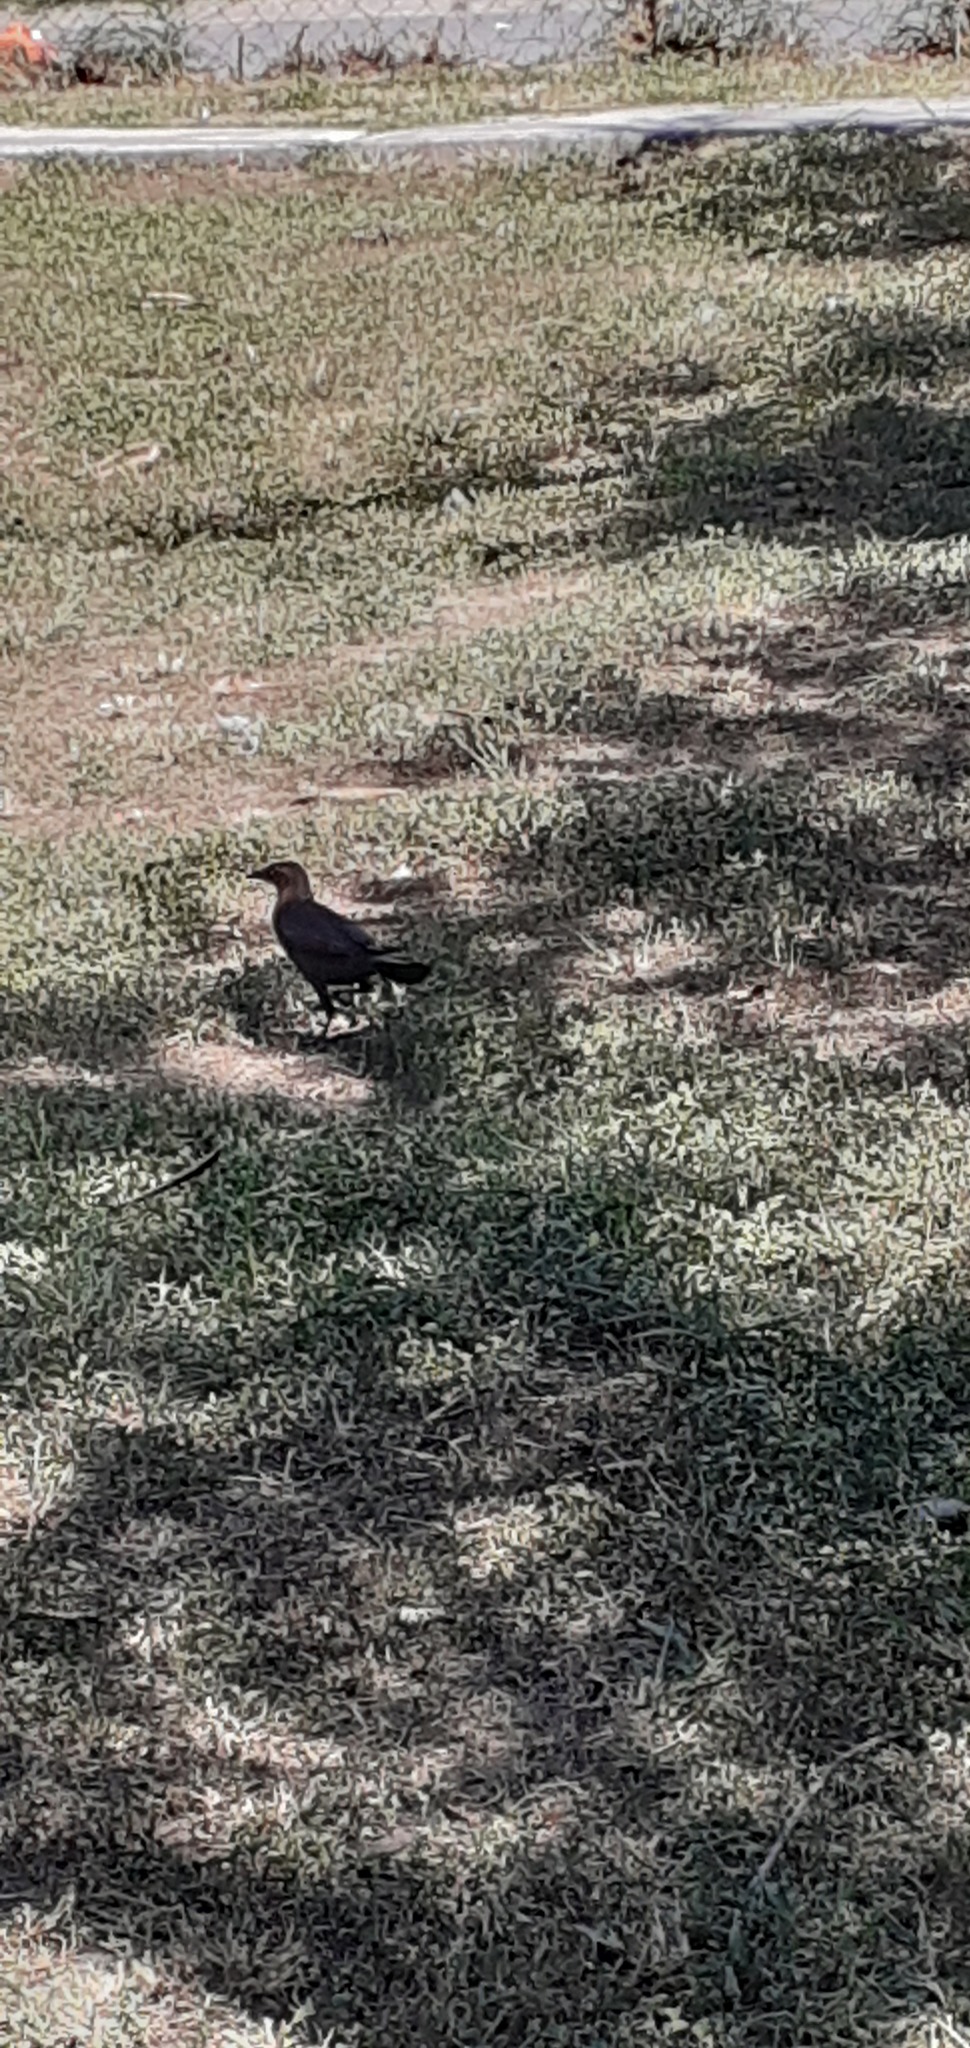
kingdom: Animalia
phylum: Chordata
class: Aves
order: Passeriformes
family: Icteridae
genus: Quiscalus
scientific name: Quiscalus mexicanus
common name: Great-tailed grackle
